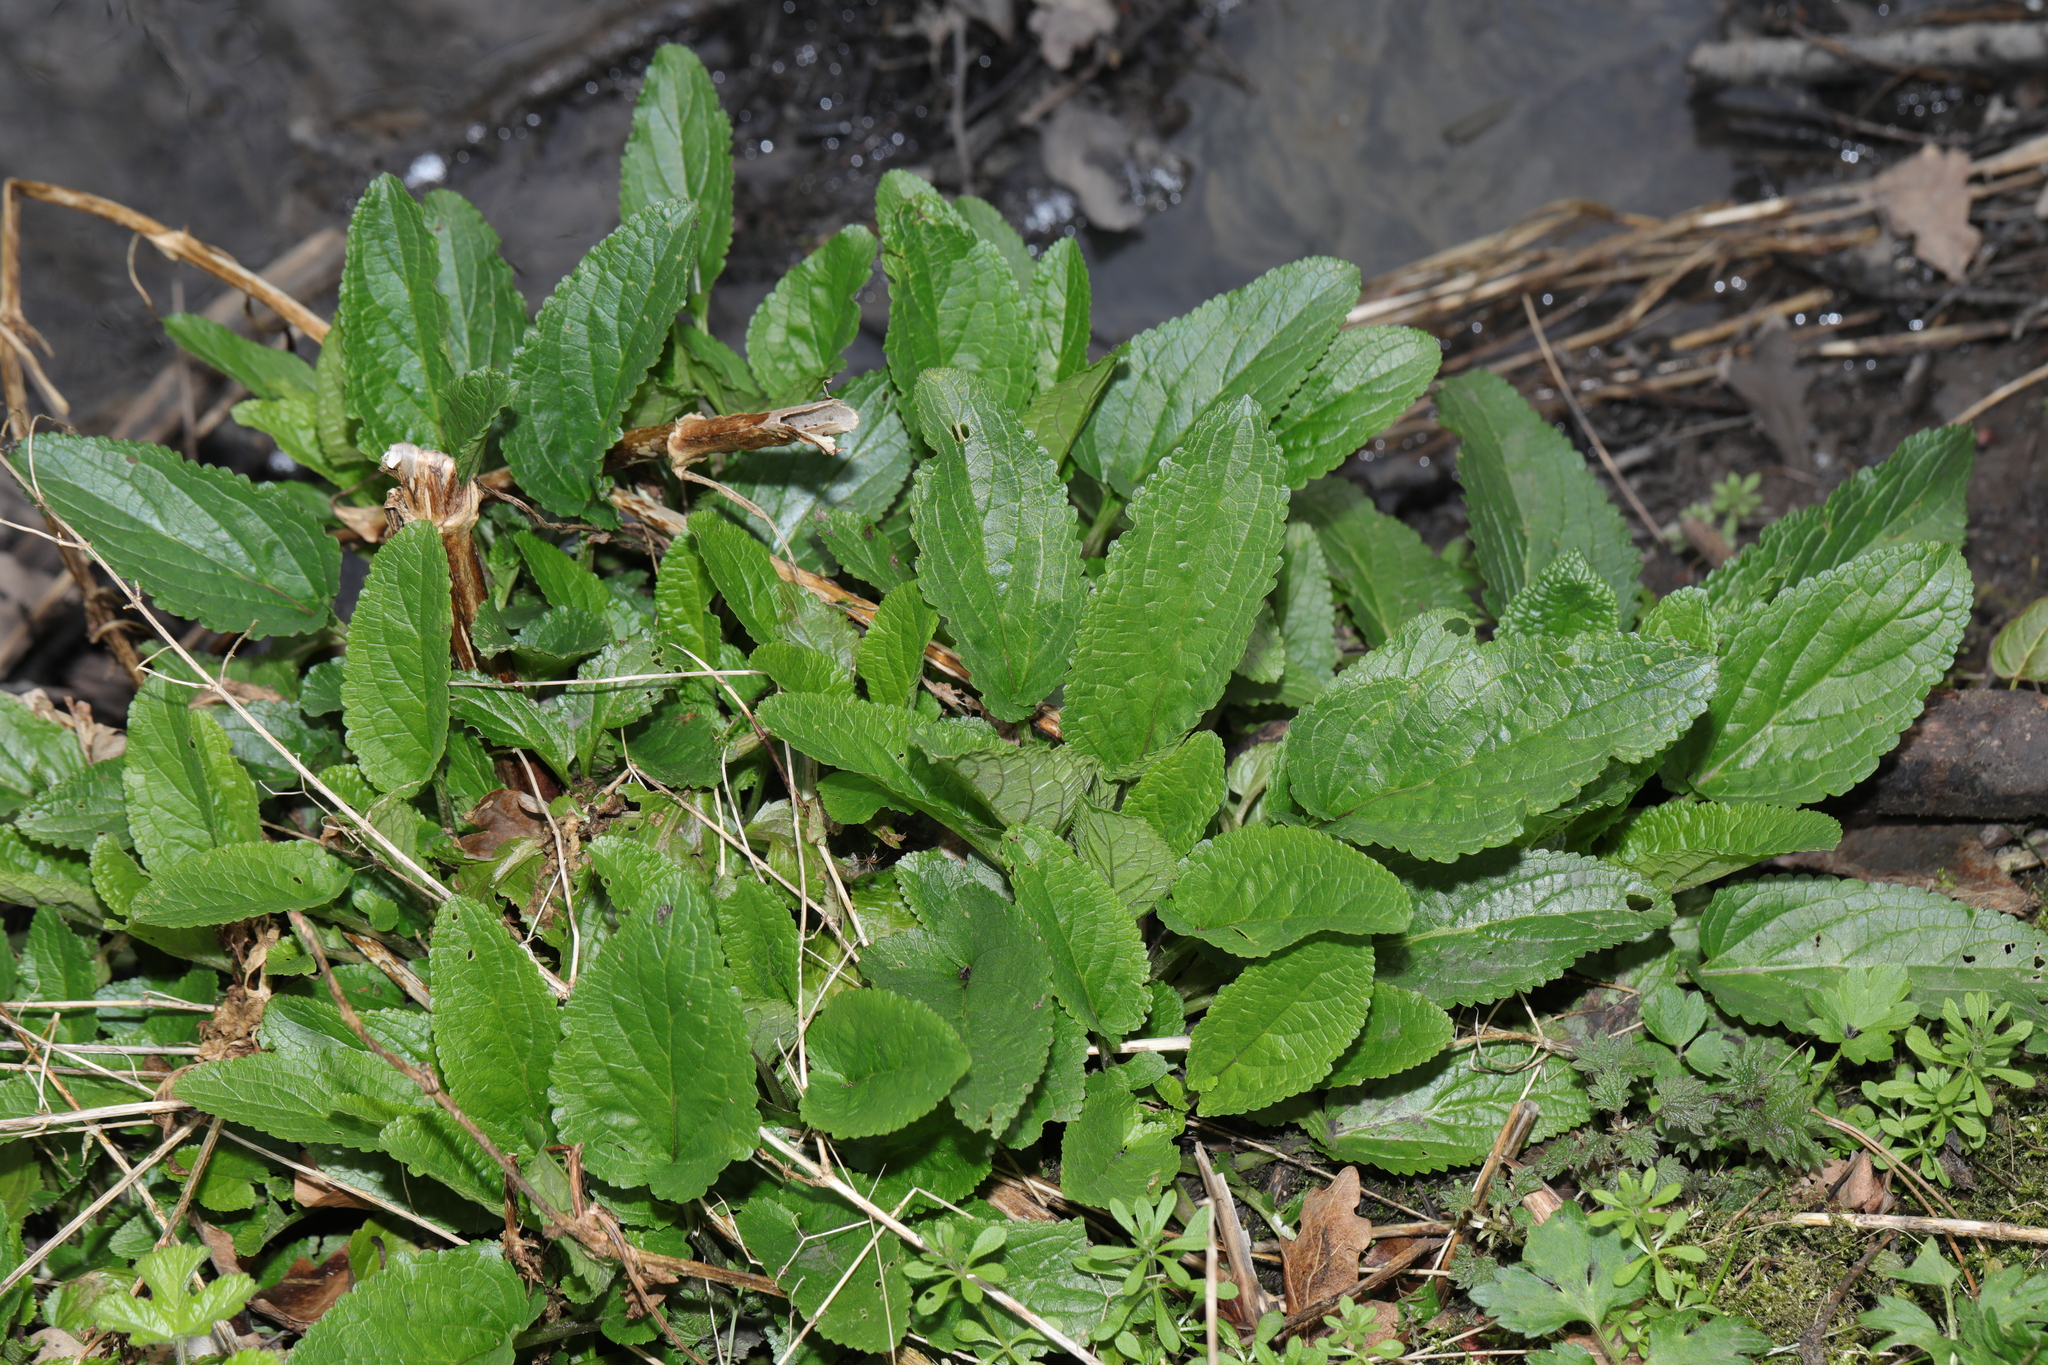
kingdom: Plantae
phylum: Tracheophyta
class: Magnoliopsida
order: Lamiales
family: Scrophulariaceae
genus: Scrophularia
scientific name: Scrophularia auriculata
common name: Water betony
